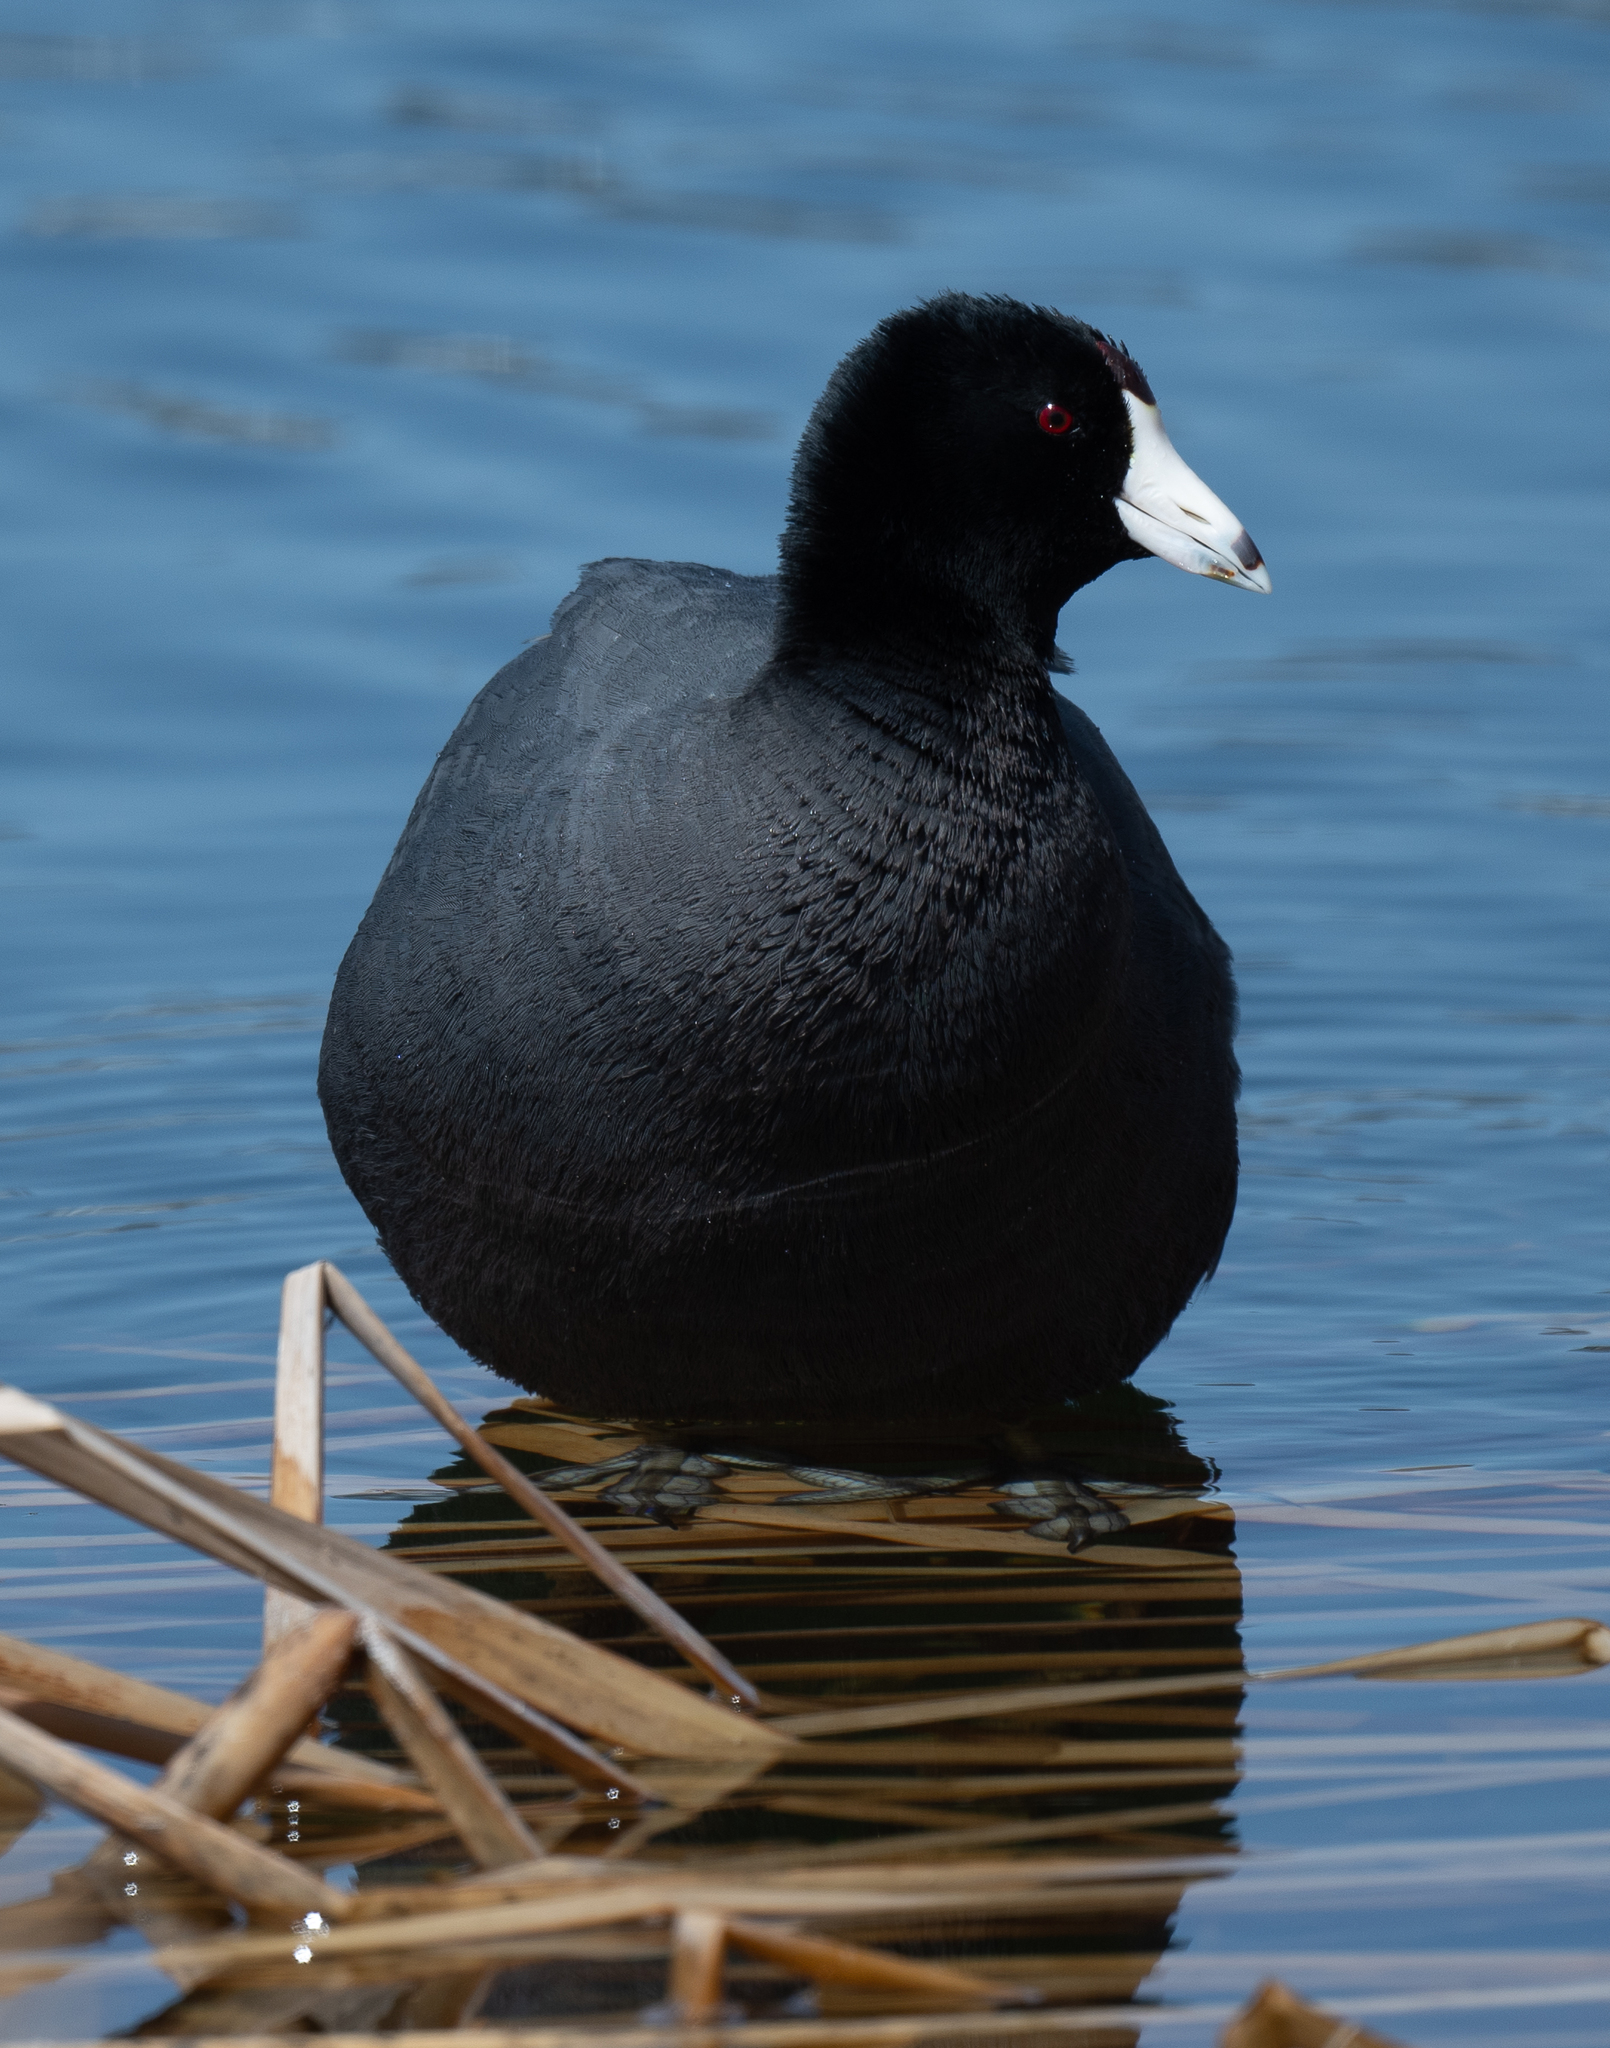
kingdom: Animalia
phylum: Chordata
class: Aves
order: Gruiformes
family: Rallidae
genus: Fulica
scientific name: Fulica americana
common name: American coot
